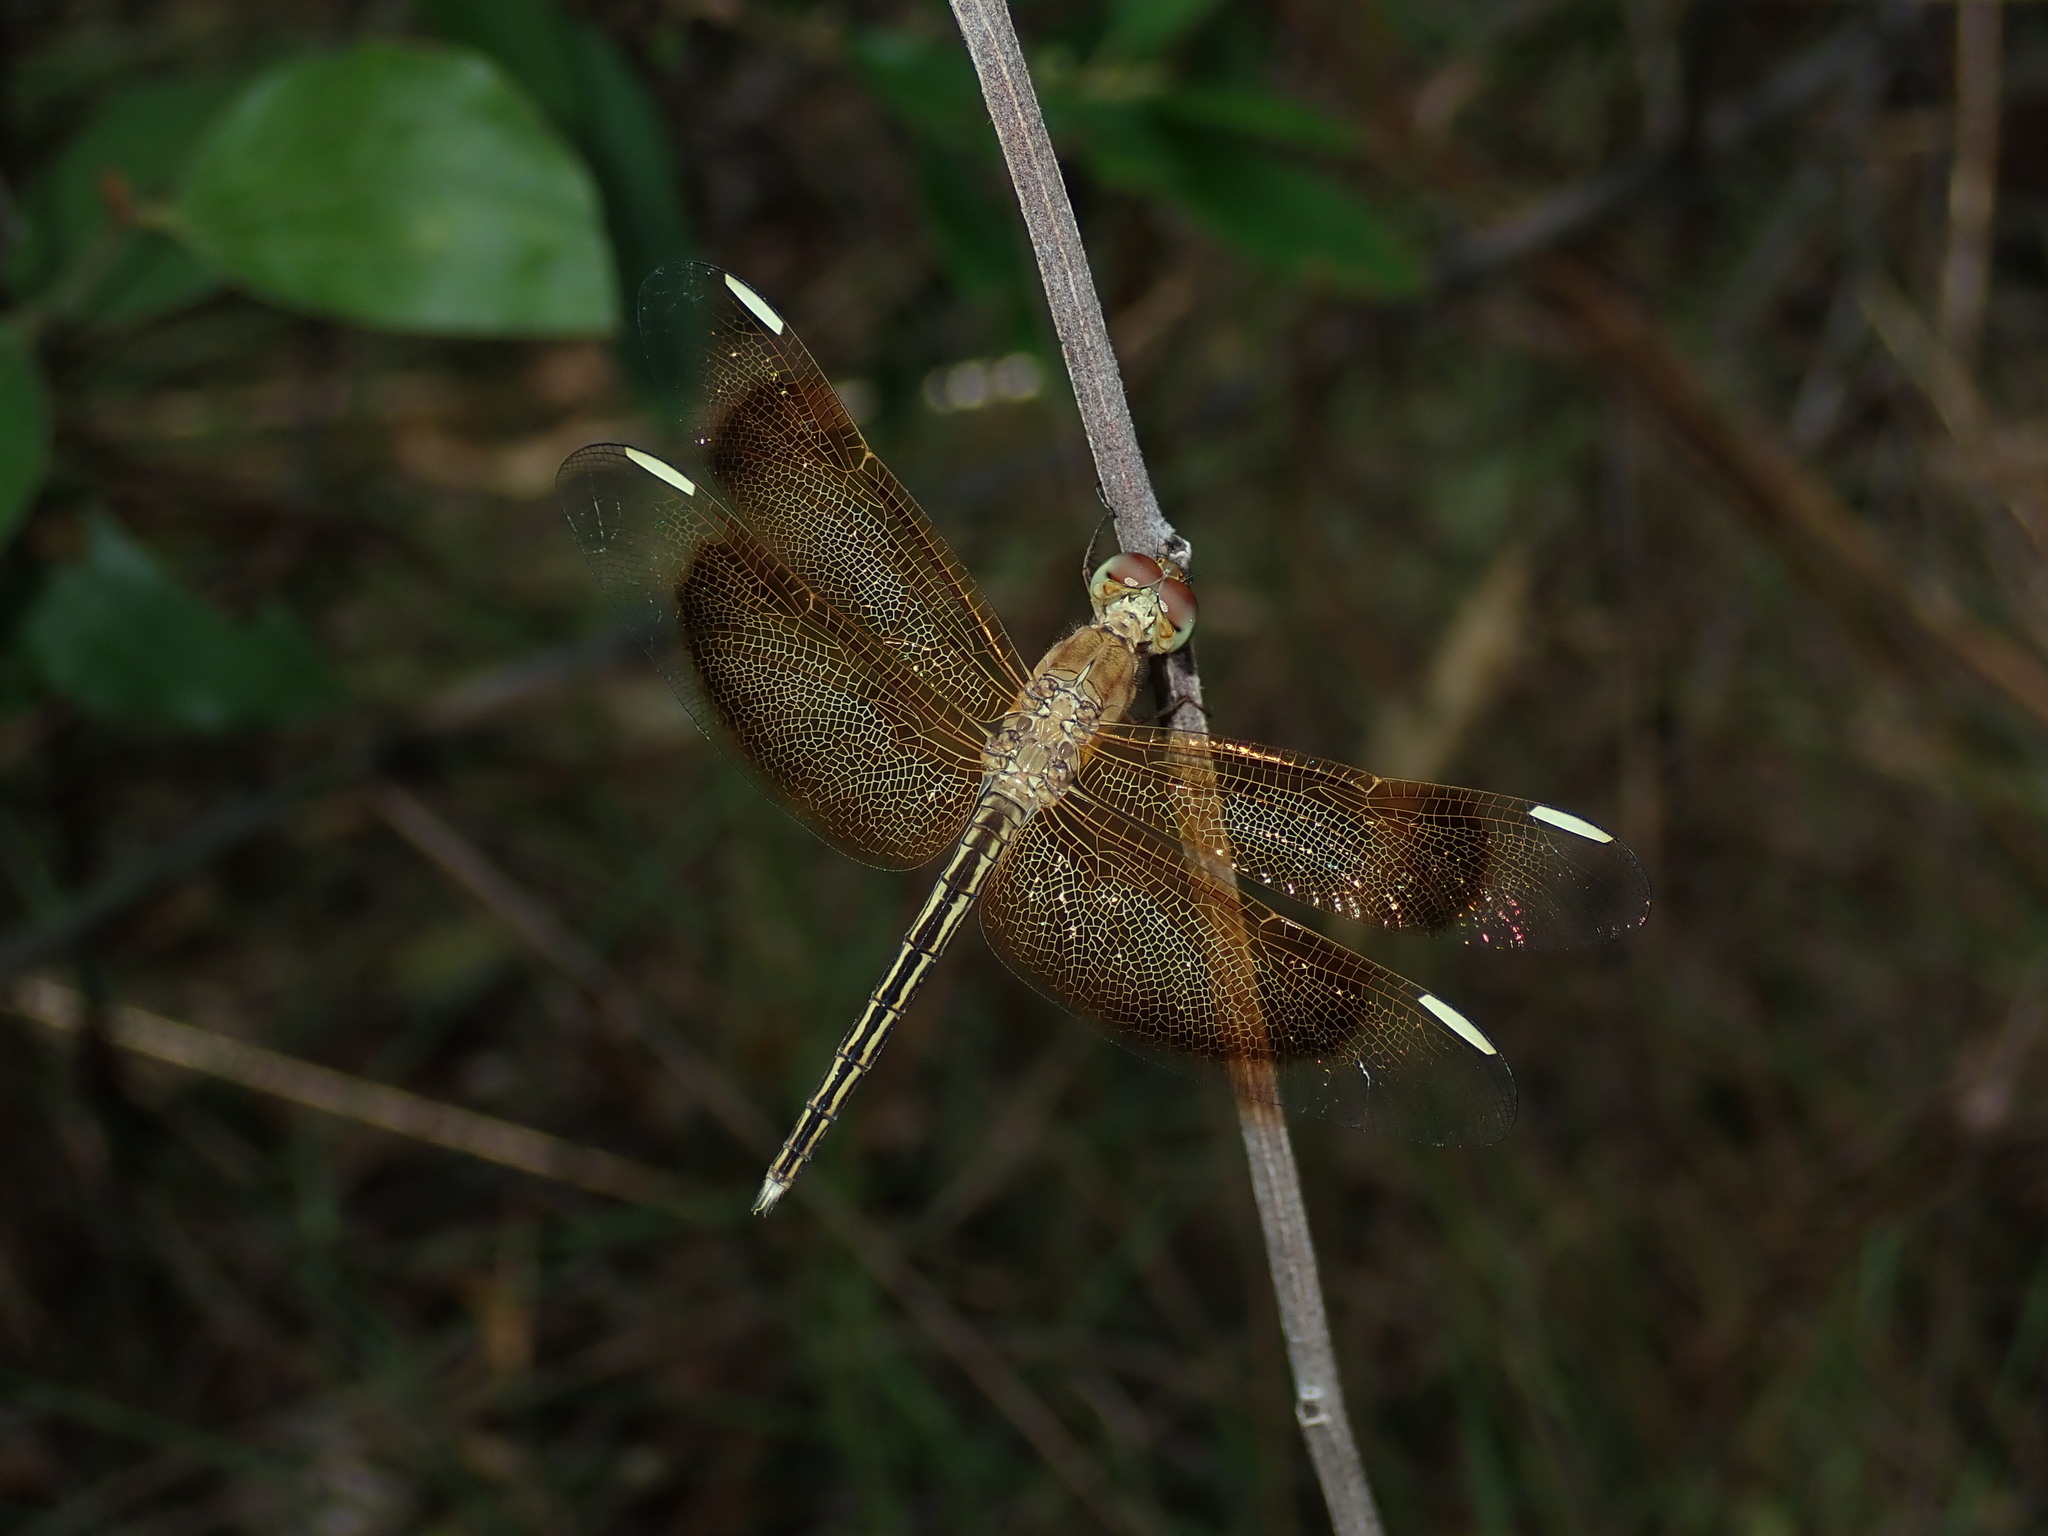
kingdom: Animalia
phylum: Arthropoda
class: Insecta
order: Odonata
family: Libellulidae
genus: Neurothemis
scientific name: Neurothemis stigmatizans
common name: Painted grasshawk
